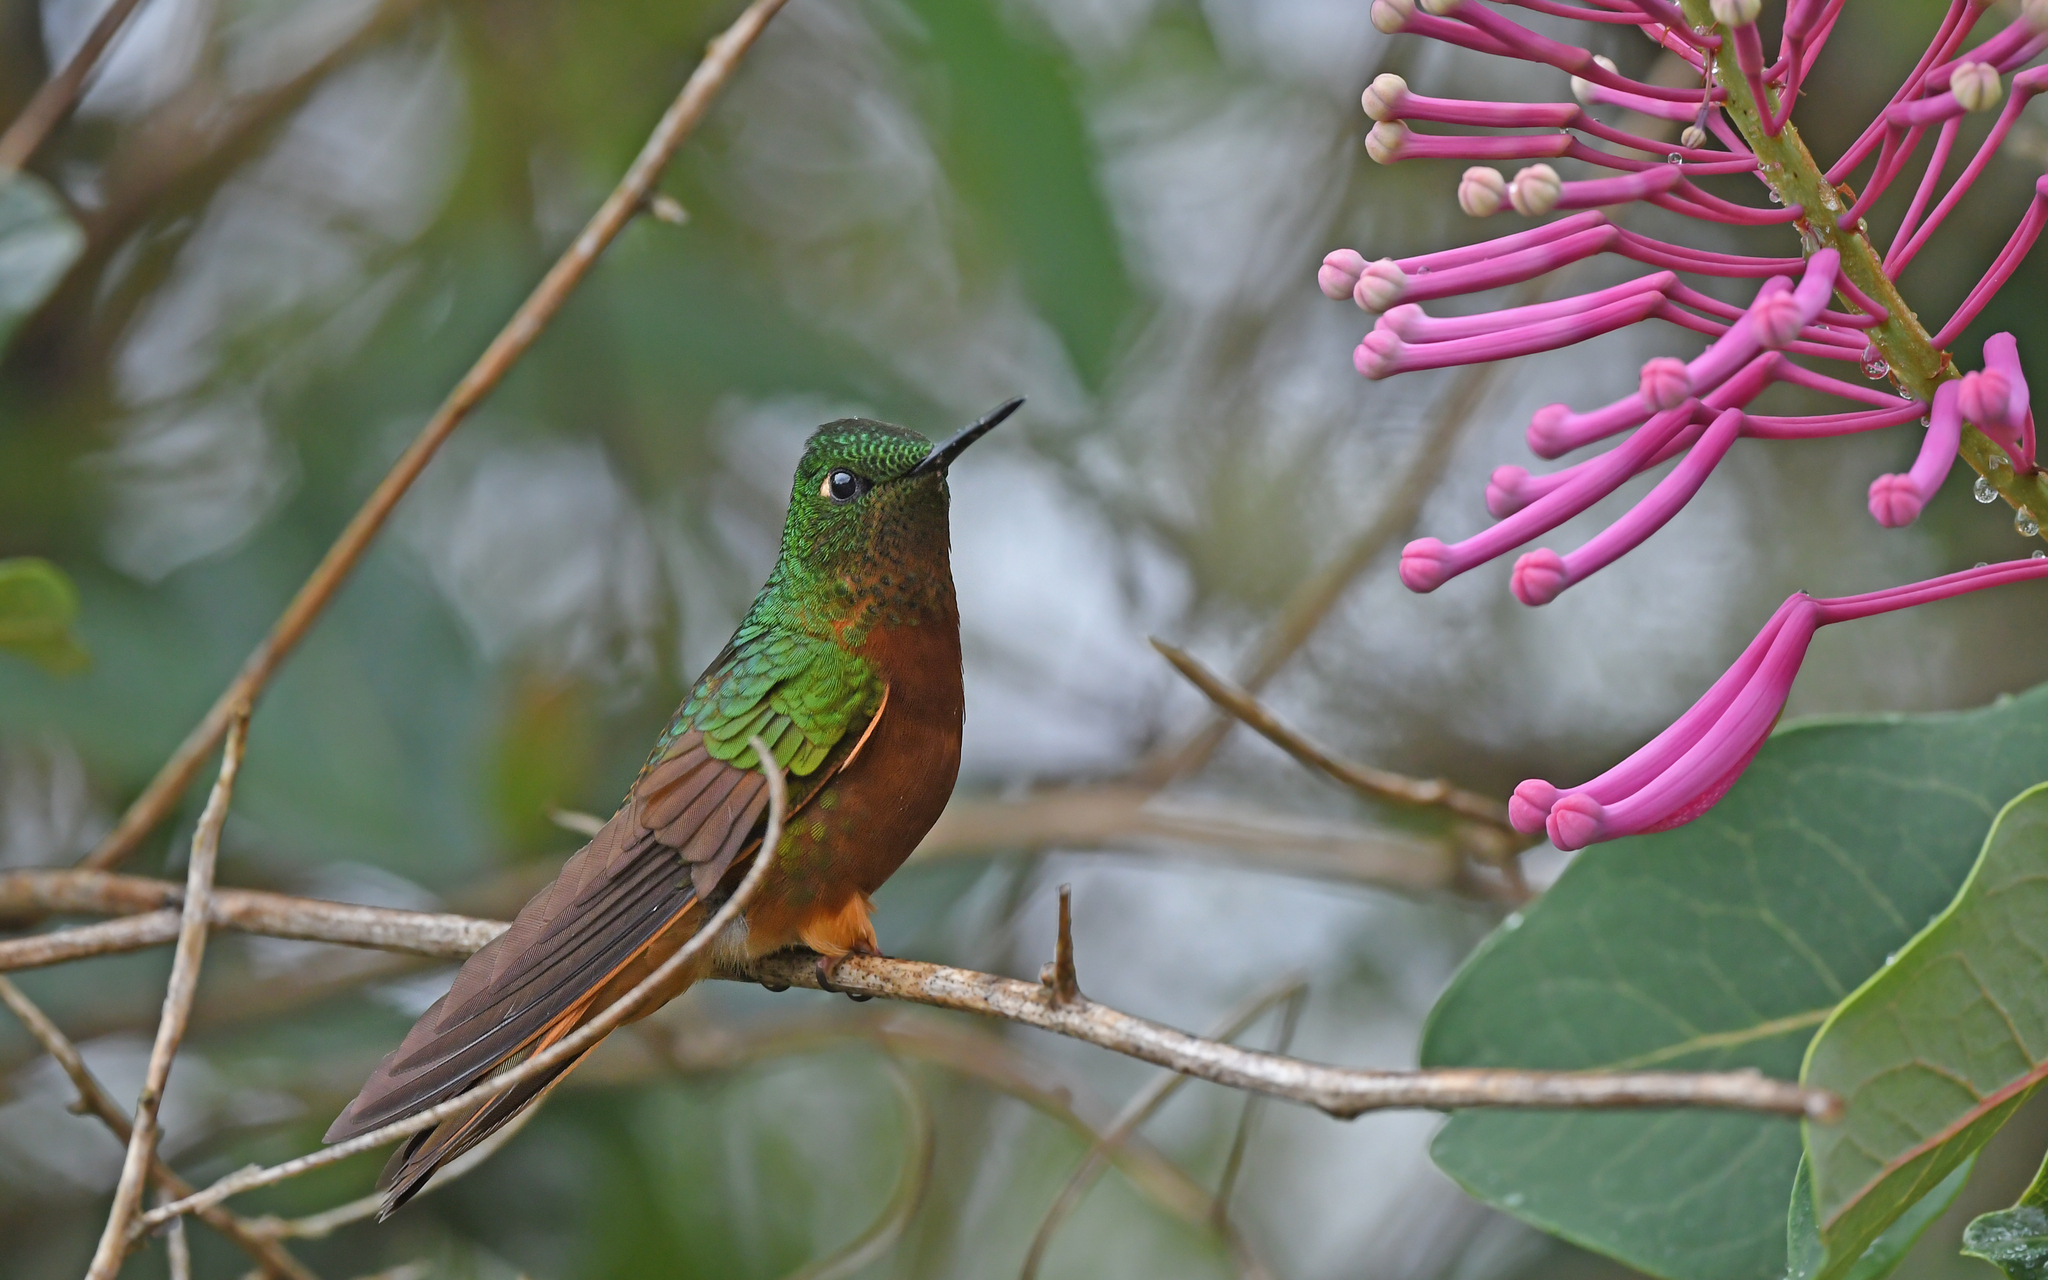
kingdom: Animalia
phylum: Chordata
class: Aves
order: Apodiformes
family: Trochilidae
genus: Boissonneaua
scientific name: Boissonneaua matthewsii
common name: Chestnut-breasted coronet
